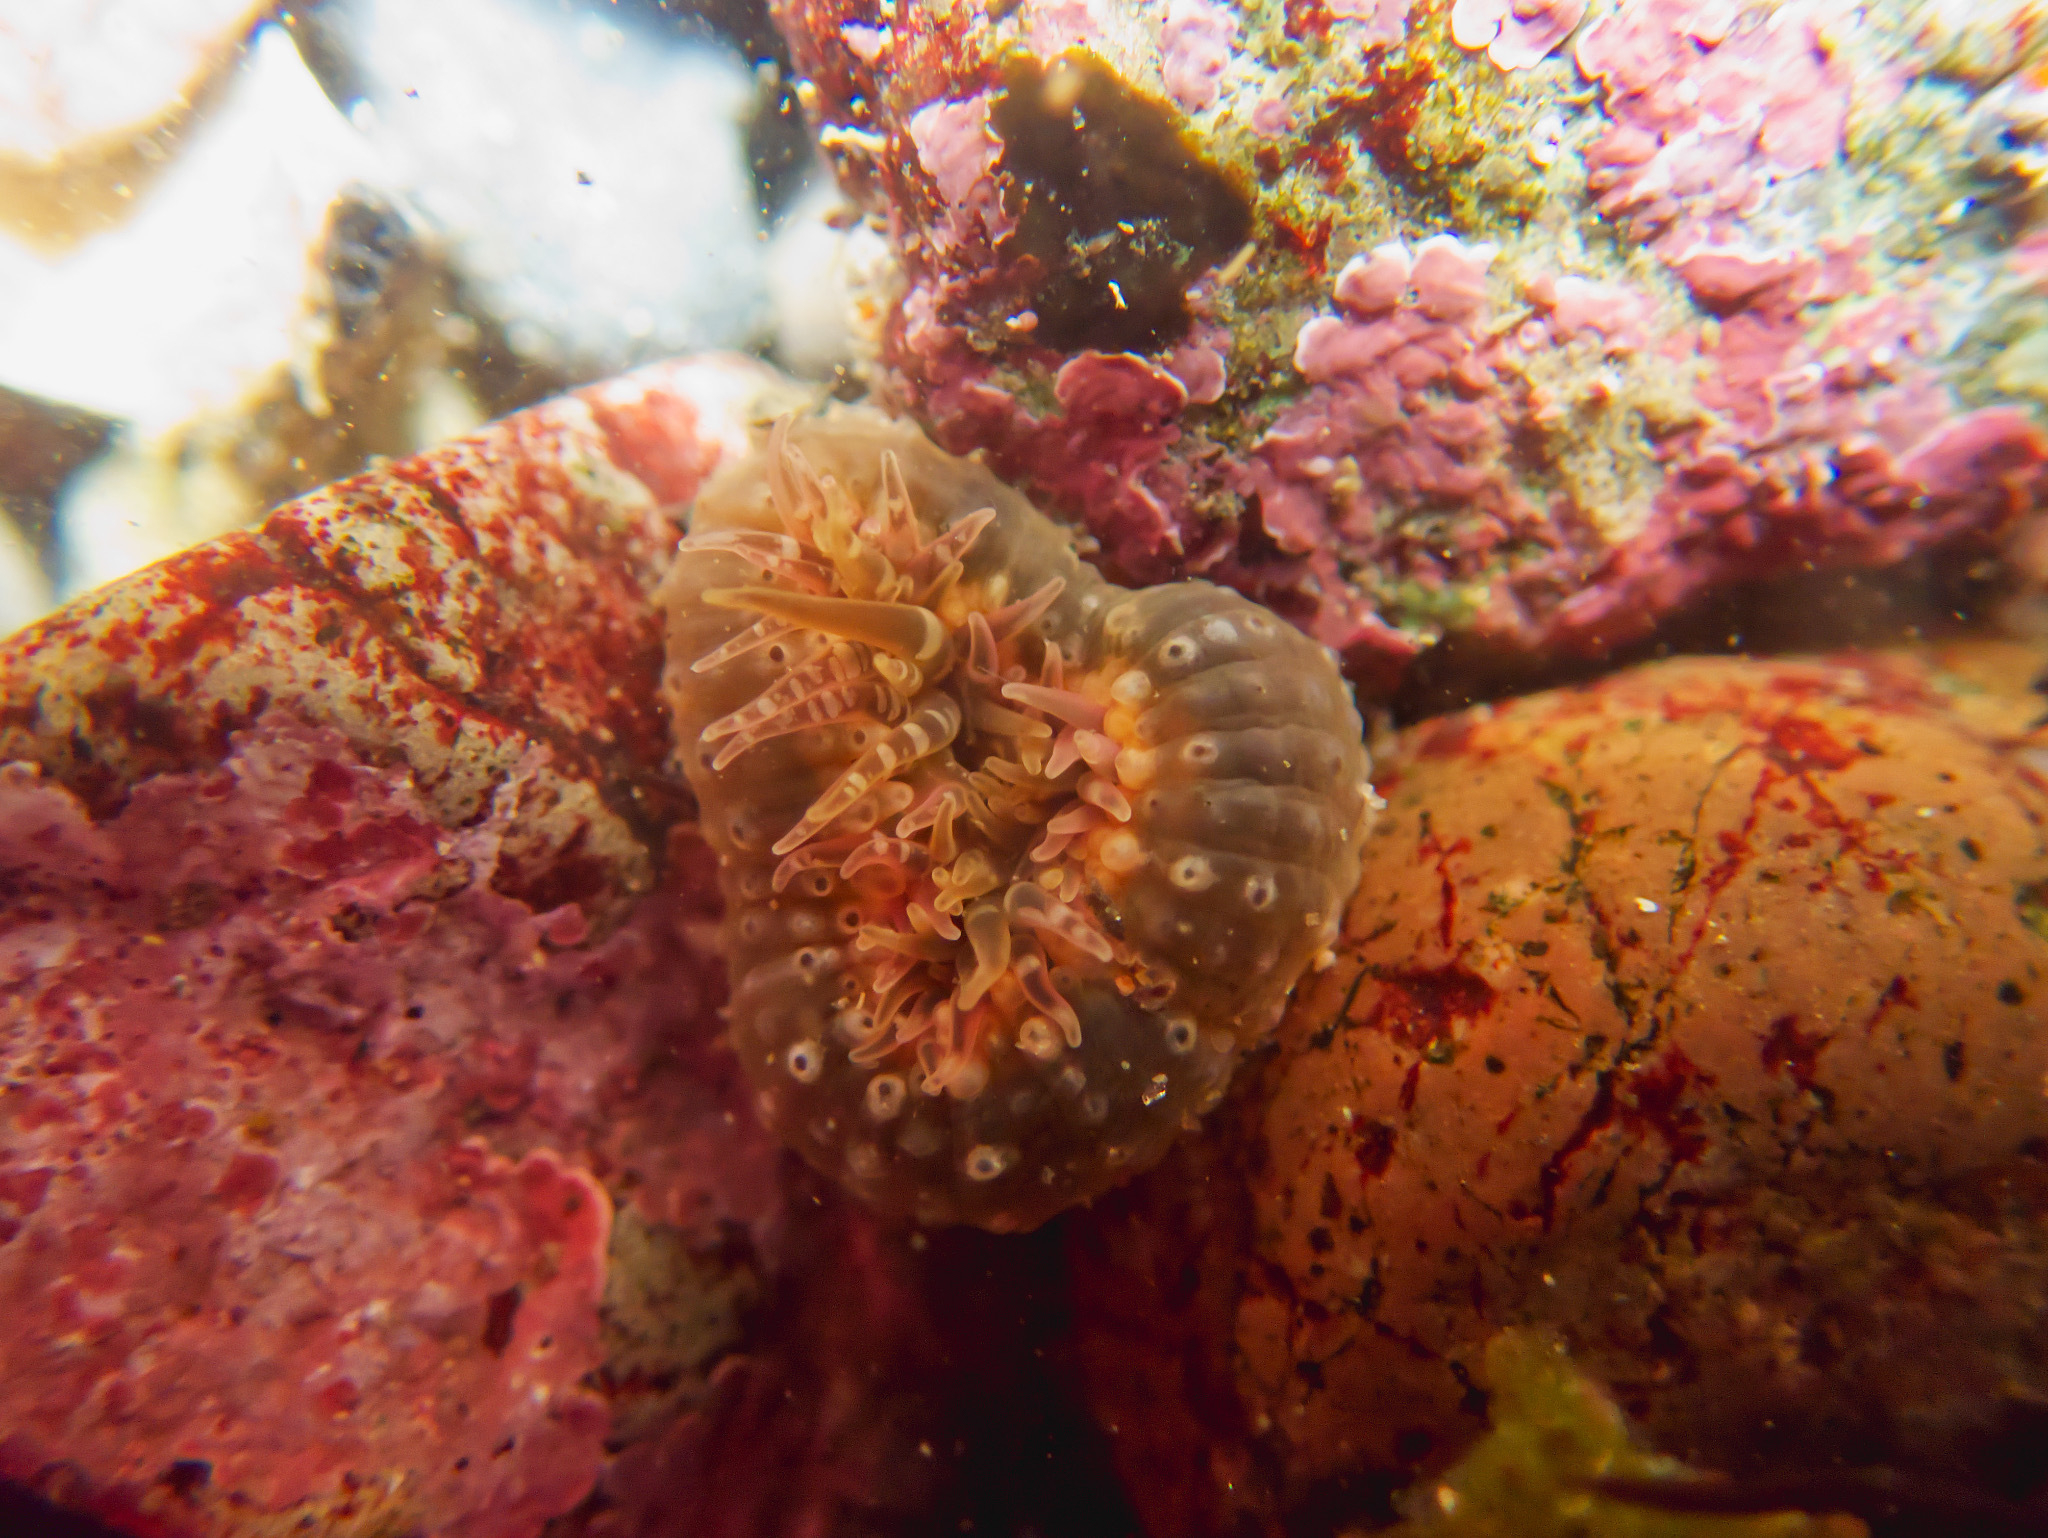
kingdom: Animalia
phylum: Cnidaria
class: Anthozoa
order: Actiniaria
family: Actiniidae
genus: Anthopleura
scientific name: Anthopleura artemisia
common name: Buried sea anemone
